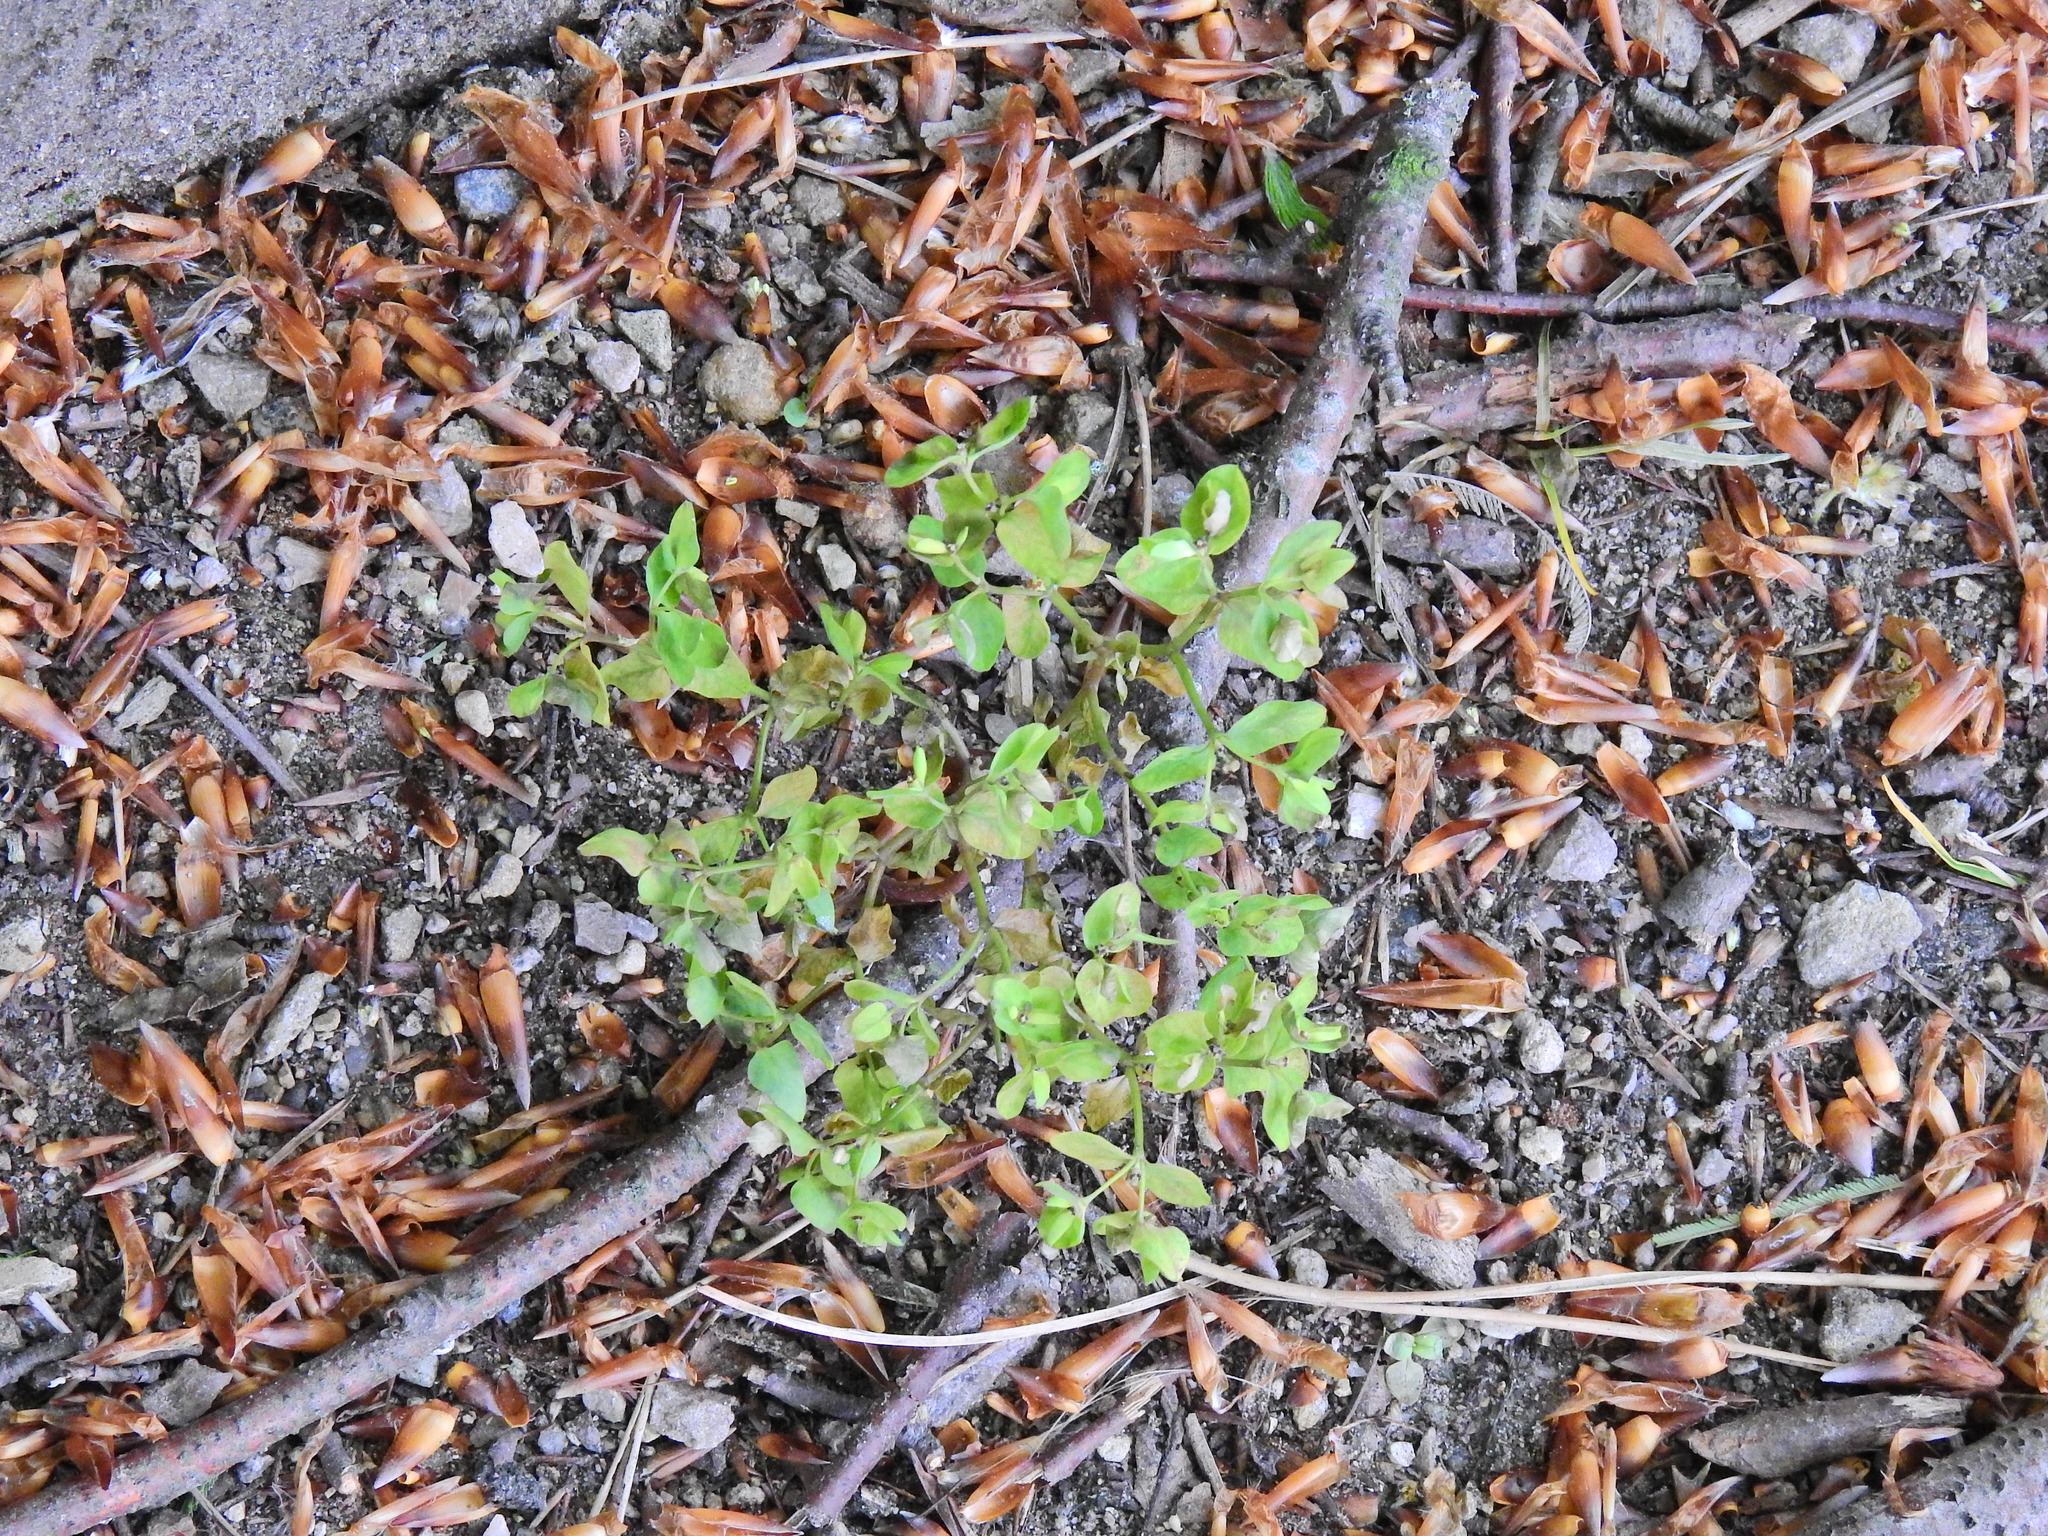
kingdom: Plantae
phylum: Tracheophyta
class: Magnoliopsida
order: Malpighiales
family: Euphorbiaceae
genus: Euphorbia
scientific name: Euphorbia peplus
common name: Petty spurge
